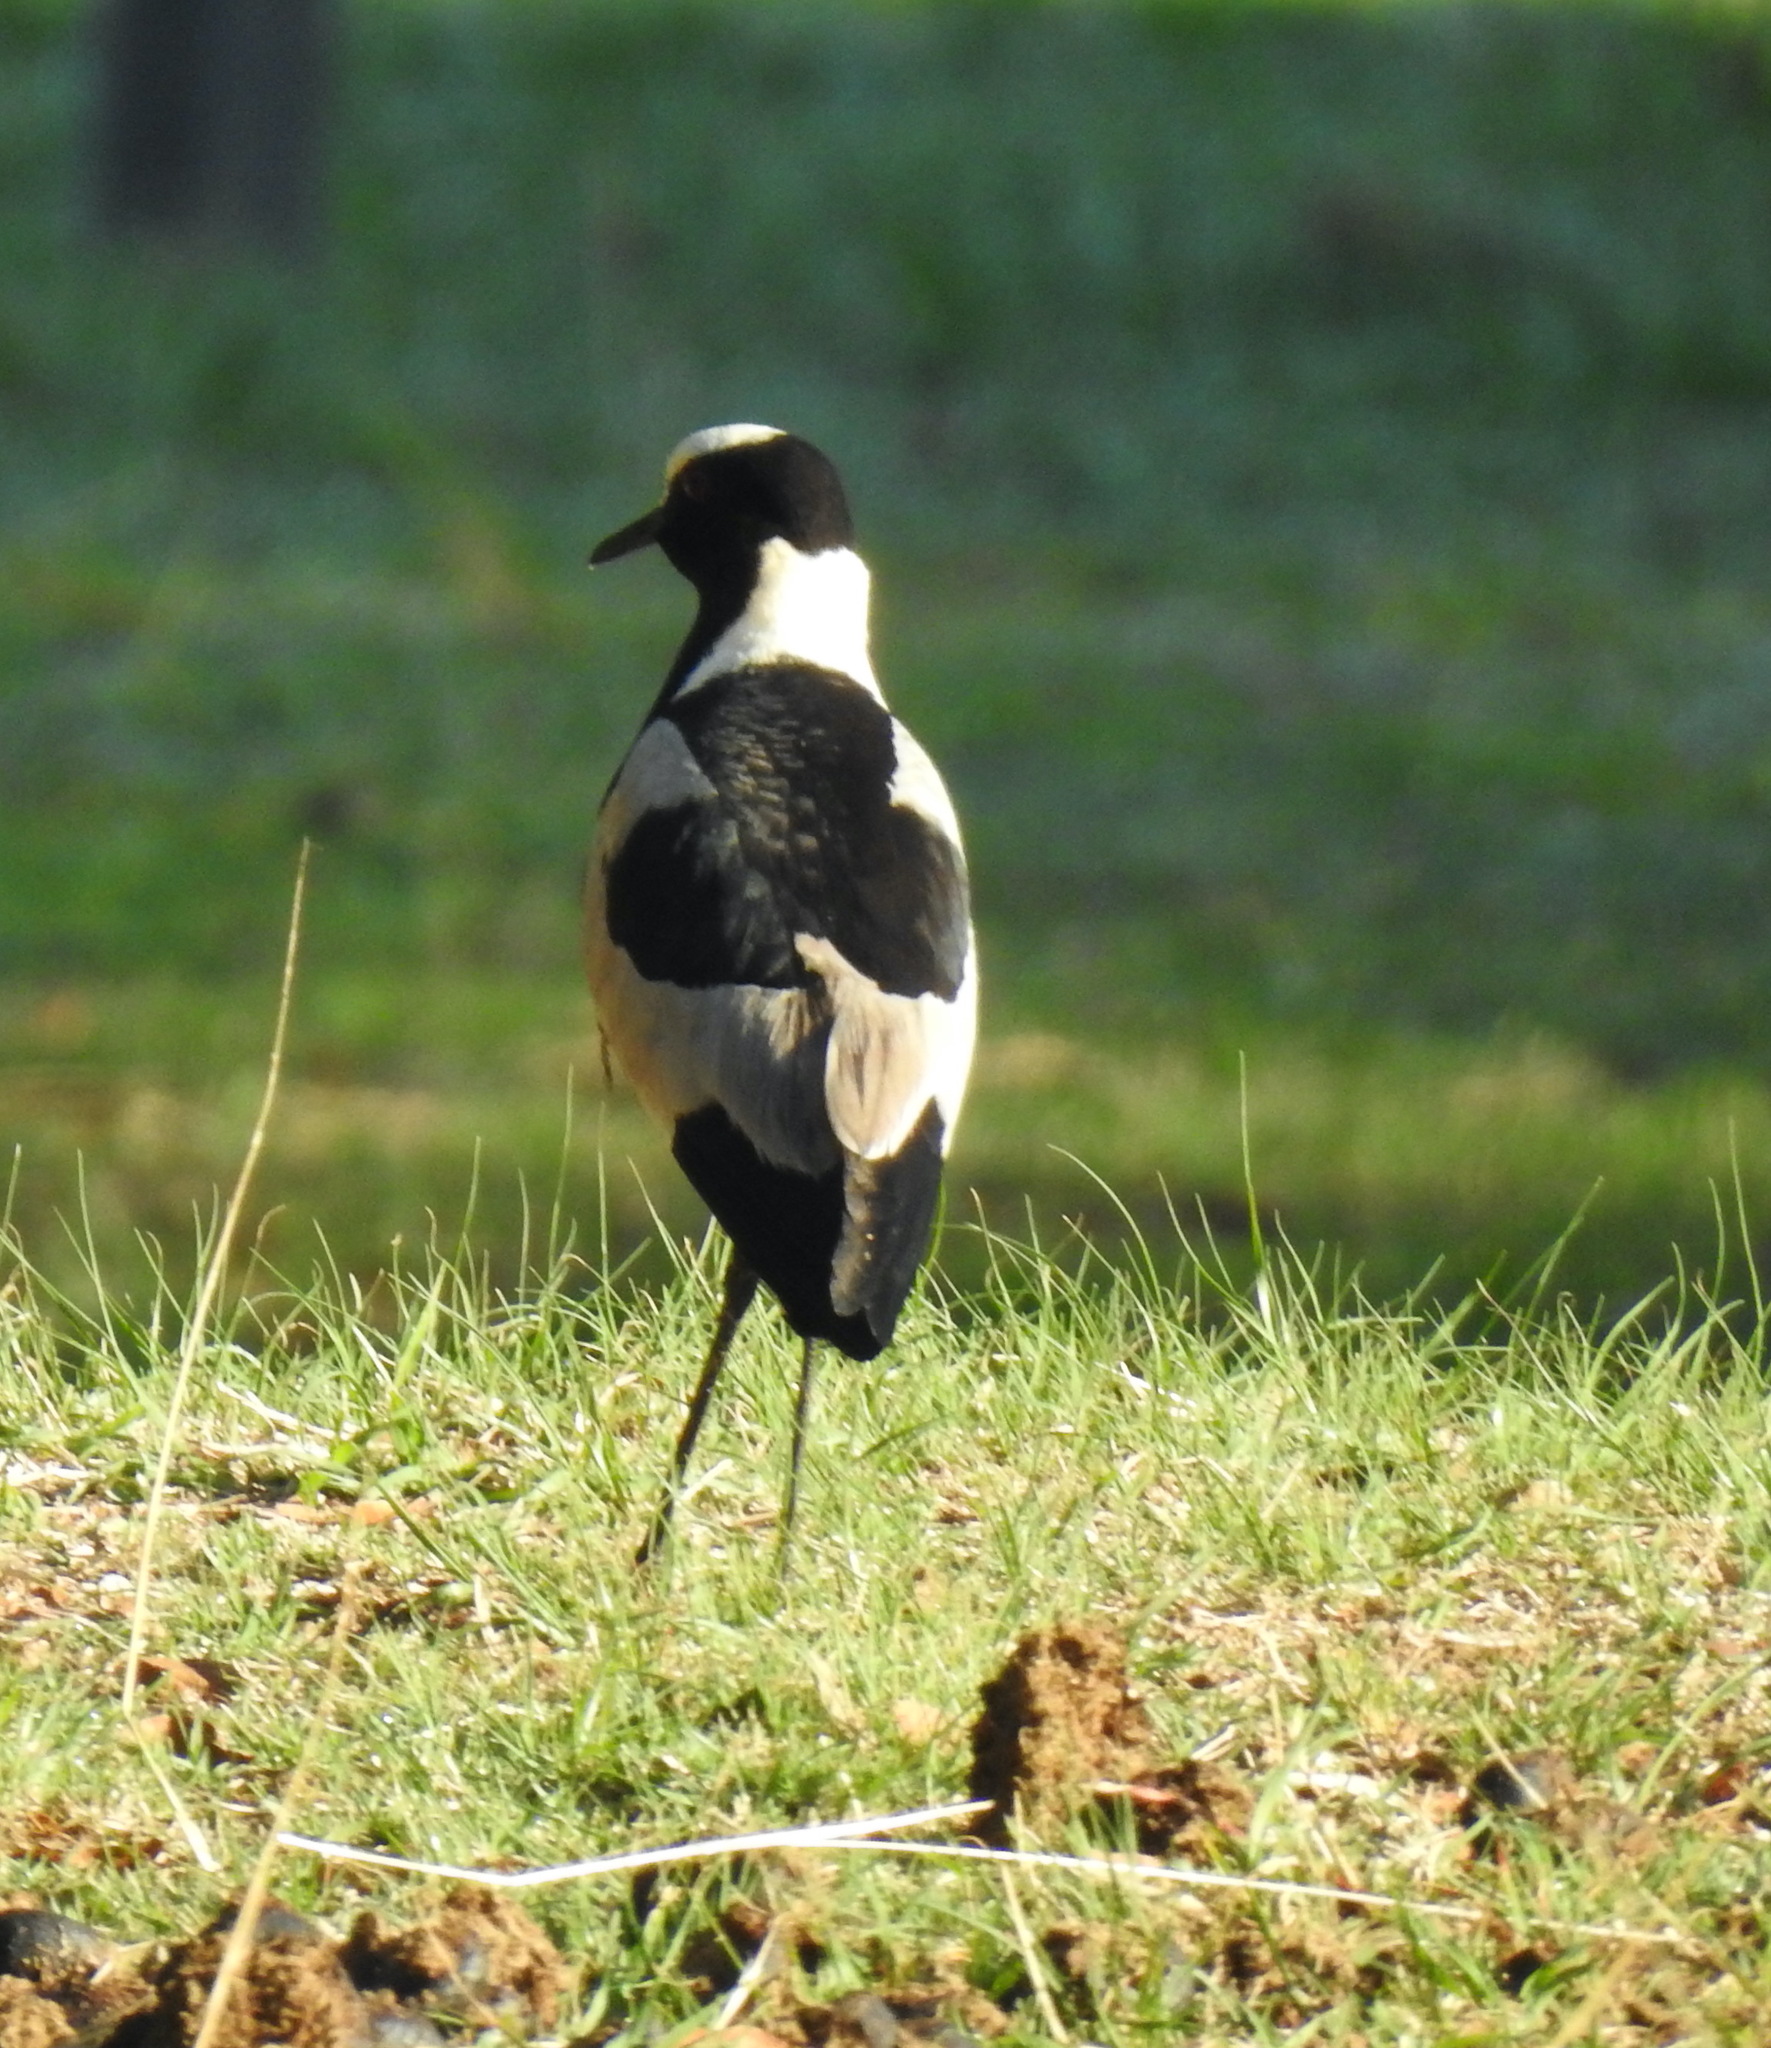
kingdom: Animalia
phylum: Chordata
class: Aves
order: Charadriiformes
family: Charadriidae
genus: Vanellus
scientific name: Vanellus armatus
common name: Blacksmith lapwing
